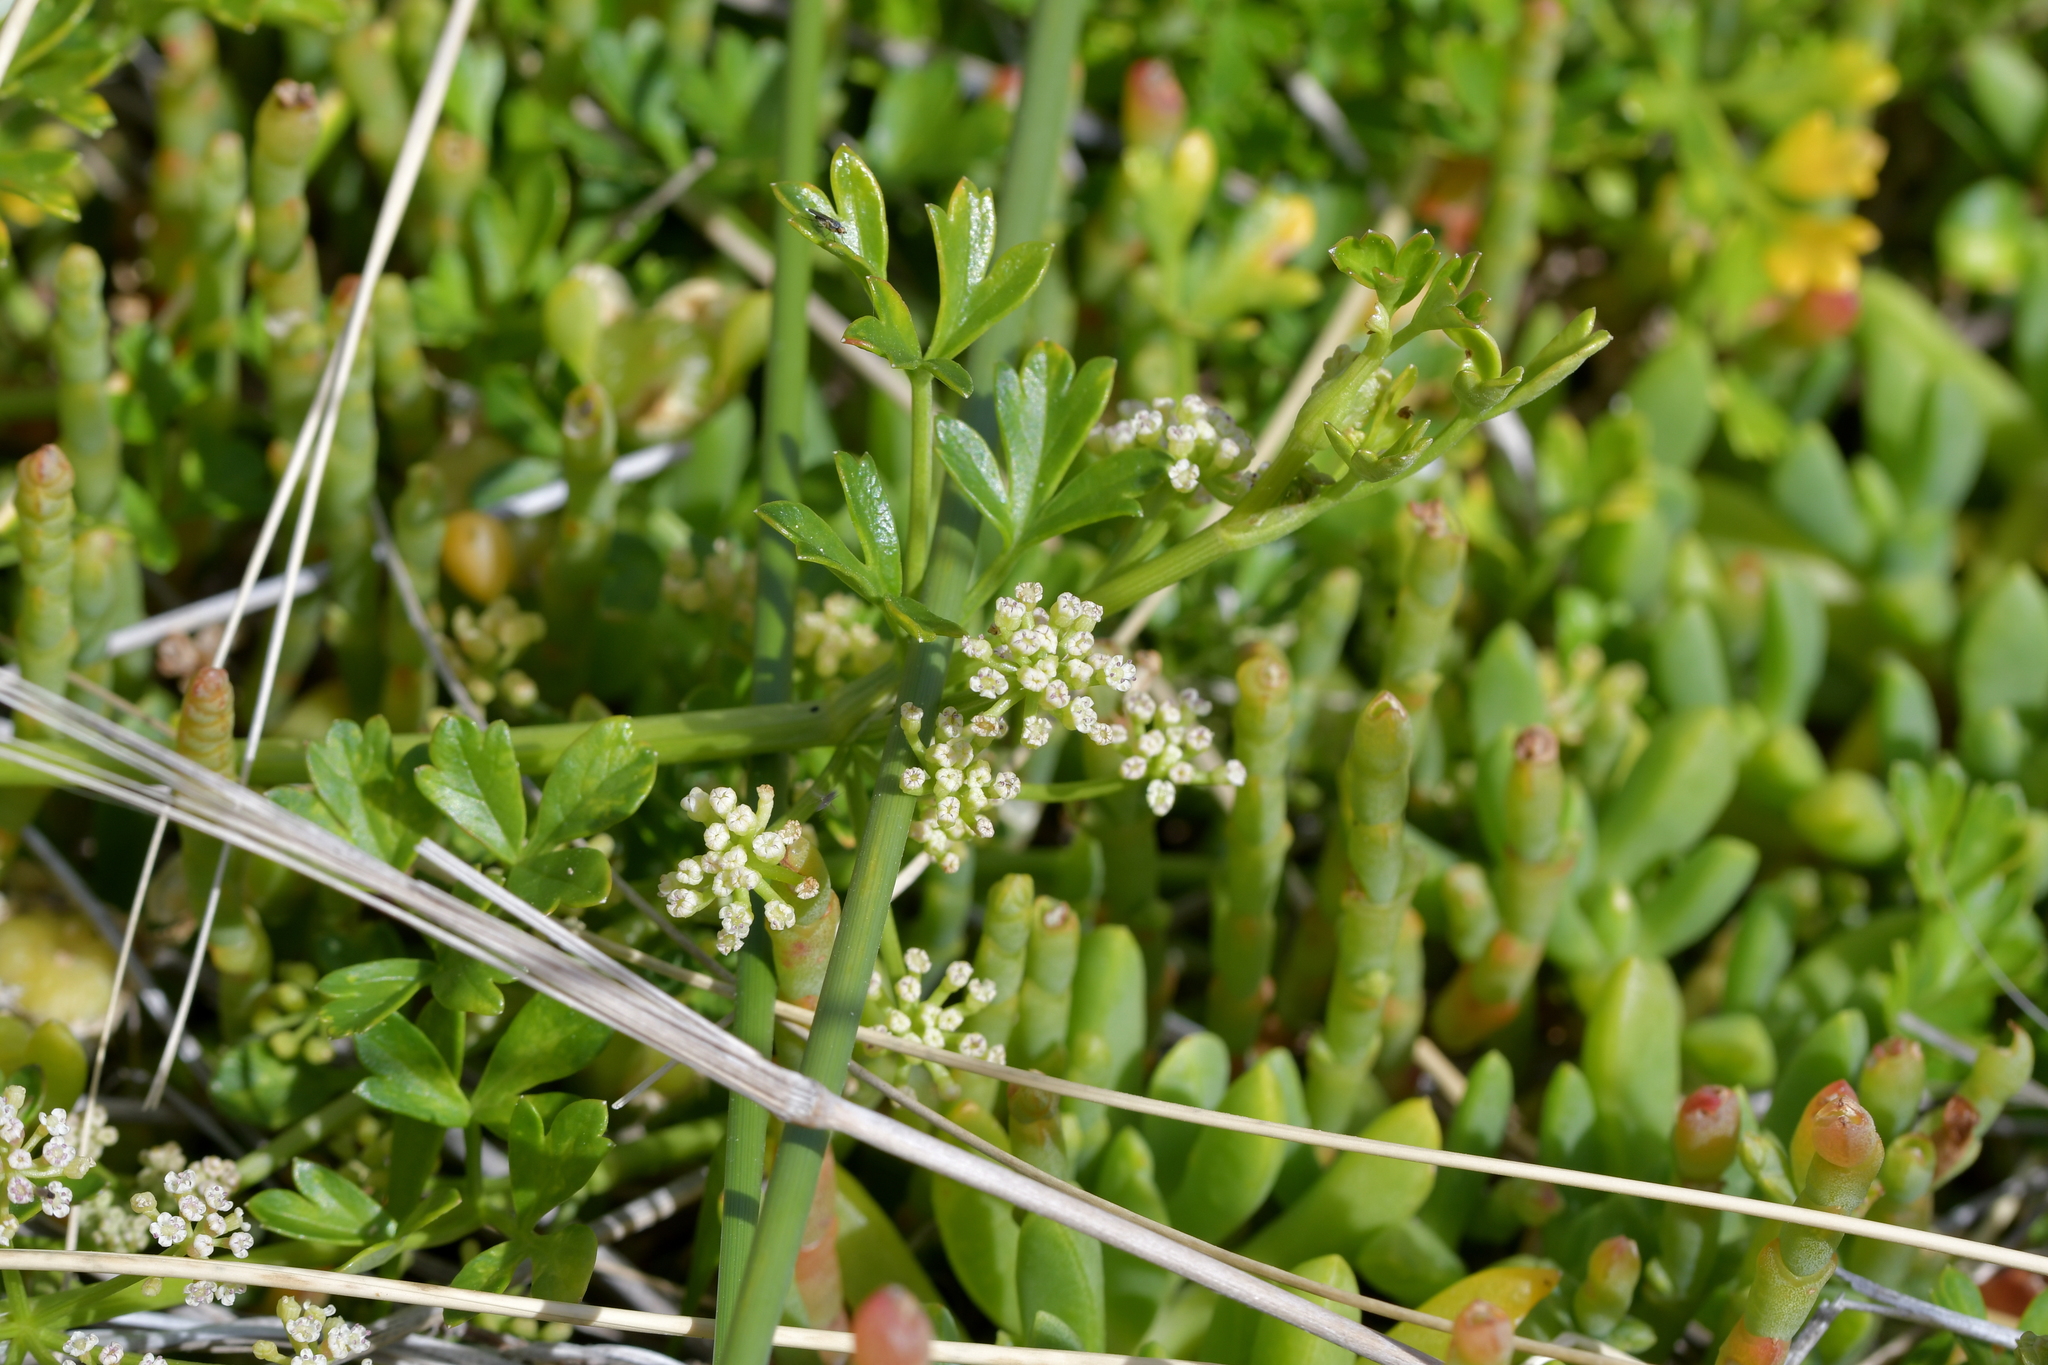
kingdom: Plantae
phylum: Tracheophyta
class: Magnoliopsida
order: Apiales
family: Apiaceae
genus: Apium
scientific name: Apium prostratum
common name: Prostrate marshwort
